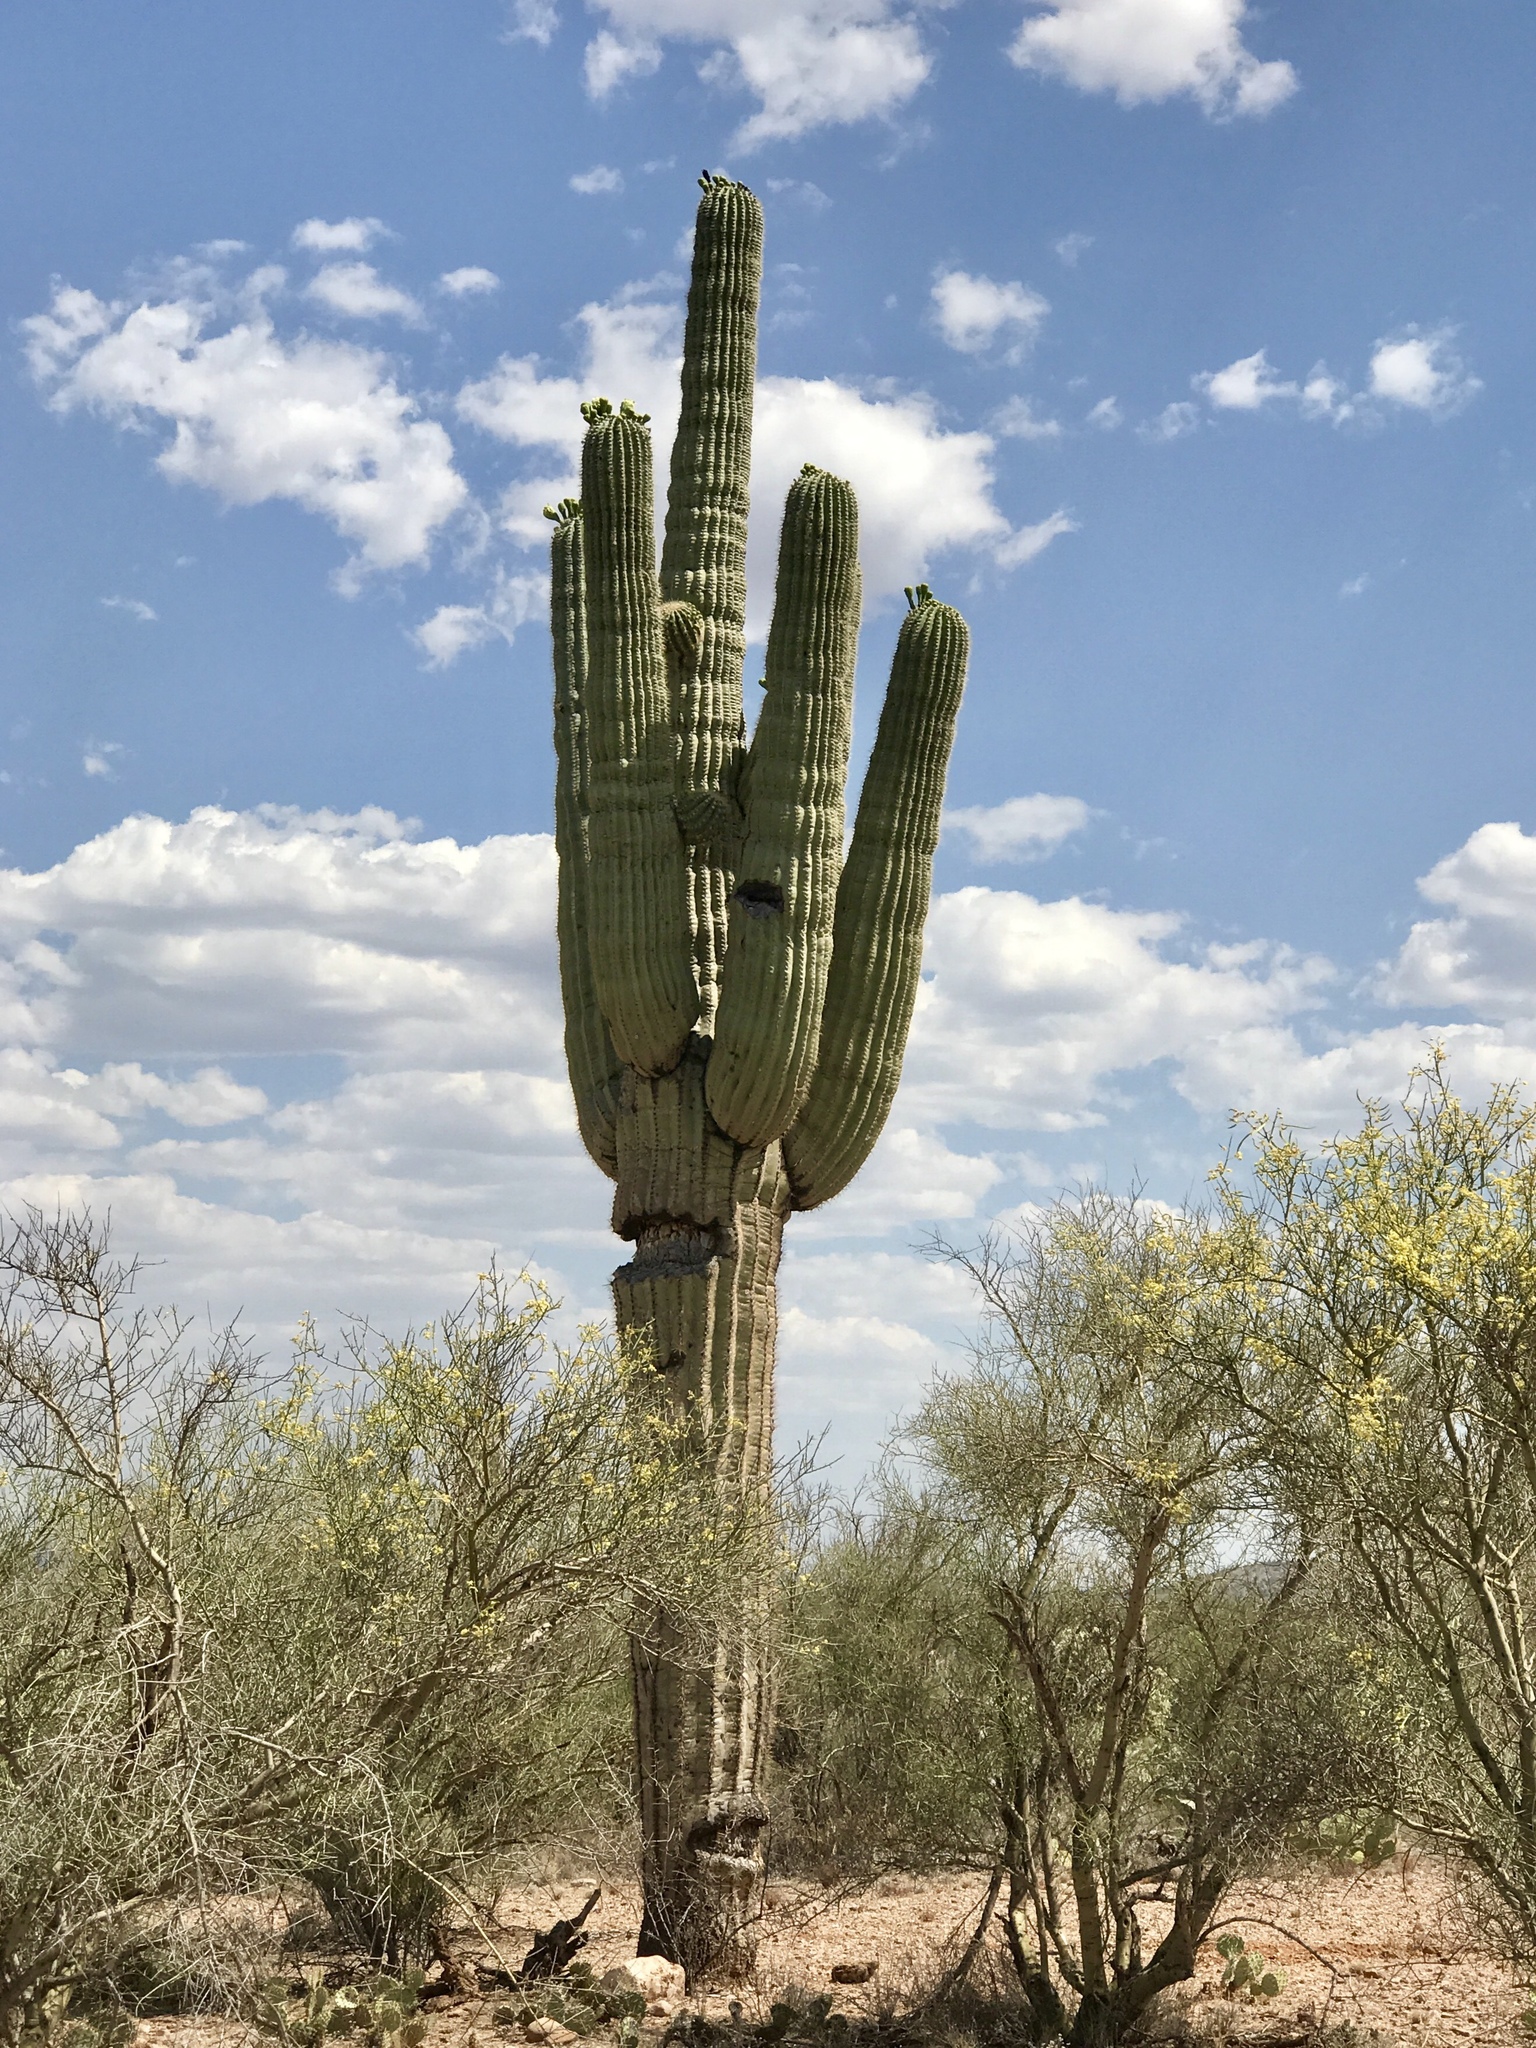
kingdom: Plantae
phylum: Tracheophyta
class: Magnoliopsida
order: Caryophyllales
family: Cactaceae
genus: Carnegiea
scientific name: Carnegiea gigantea
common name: Saguaro
